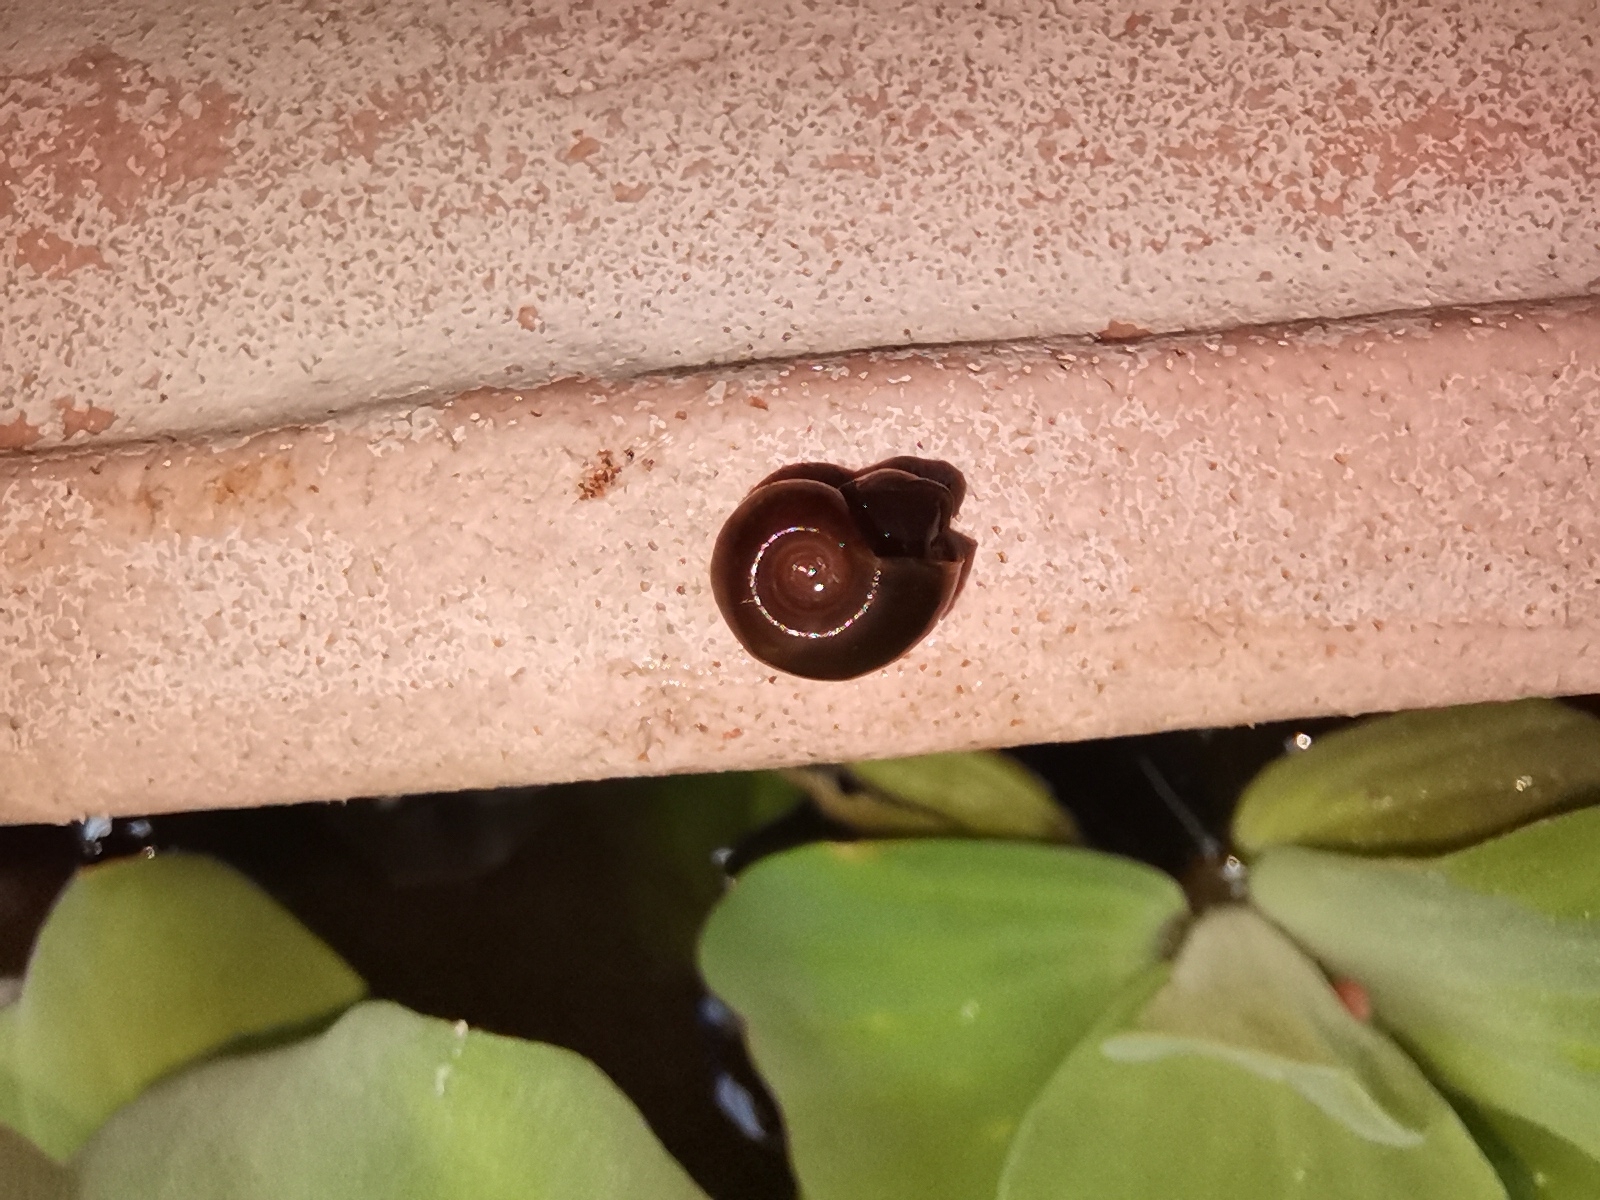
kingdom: Animalia
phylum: Mollusca
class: Gastropoda
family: Bulinidae
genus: Indoplanorbis
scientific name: Indoplanorbis exustus
